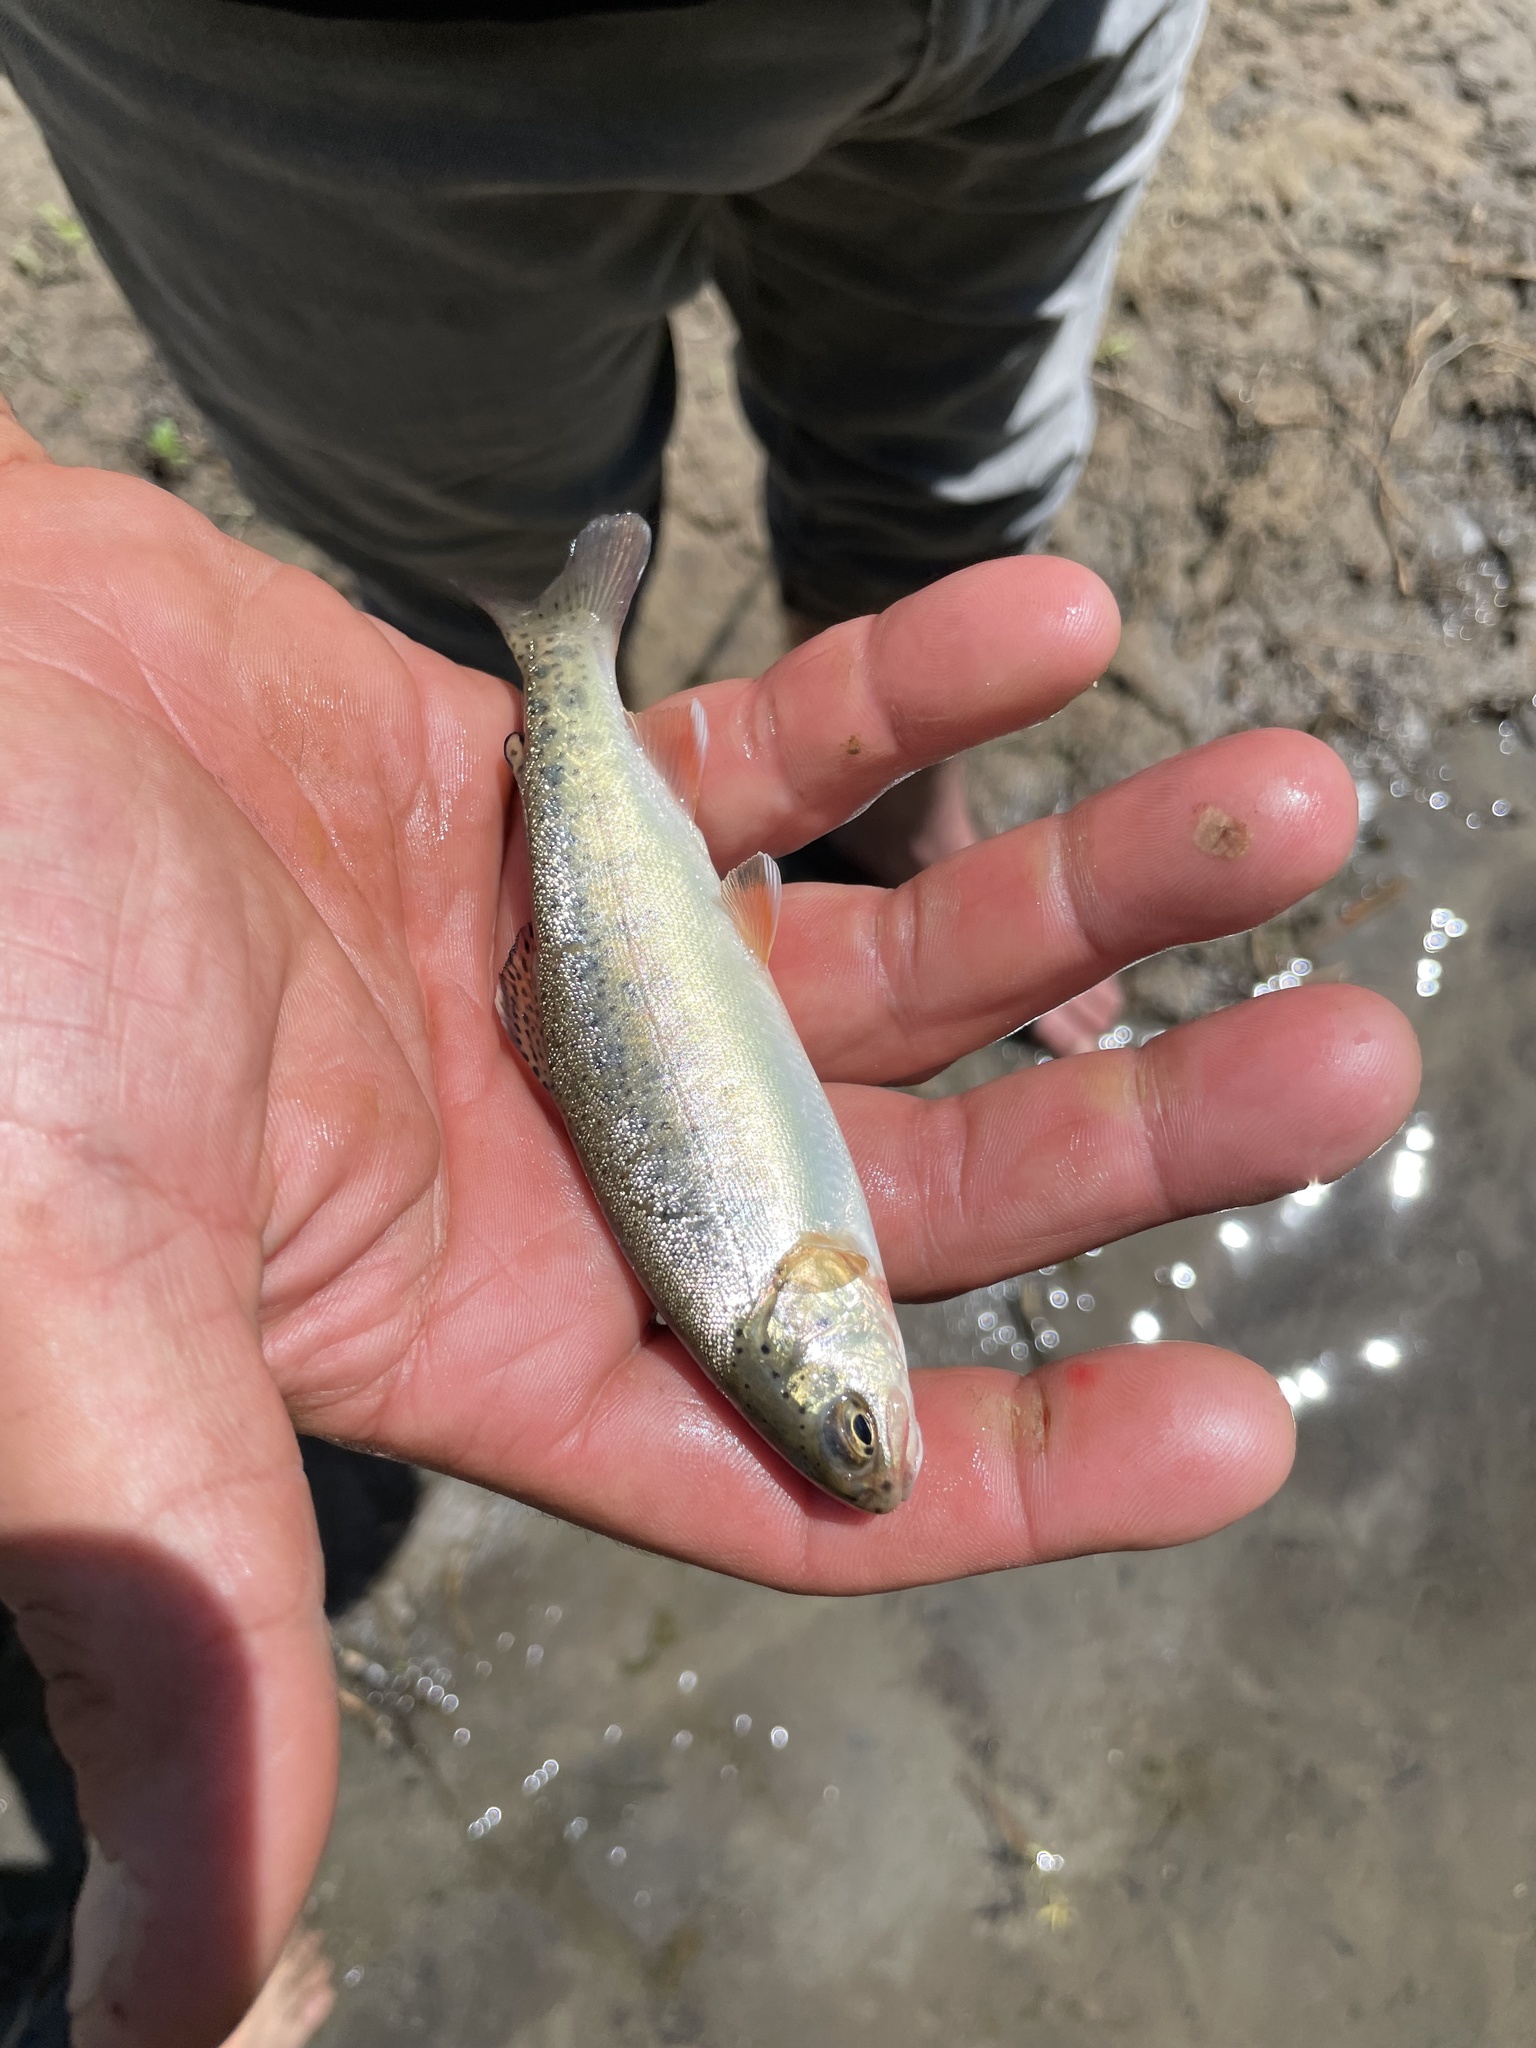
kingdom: Animalia
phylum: Chordata
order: Salmoniformes
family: Salmonidae
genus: Oncorhynchus
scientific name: Oncorhynchus mykiss
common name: Rainbow trout
